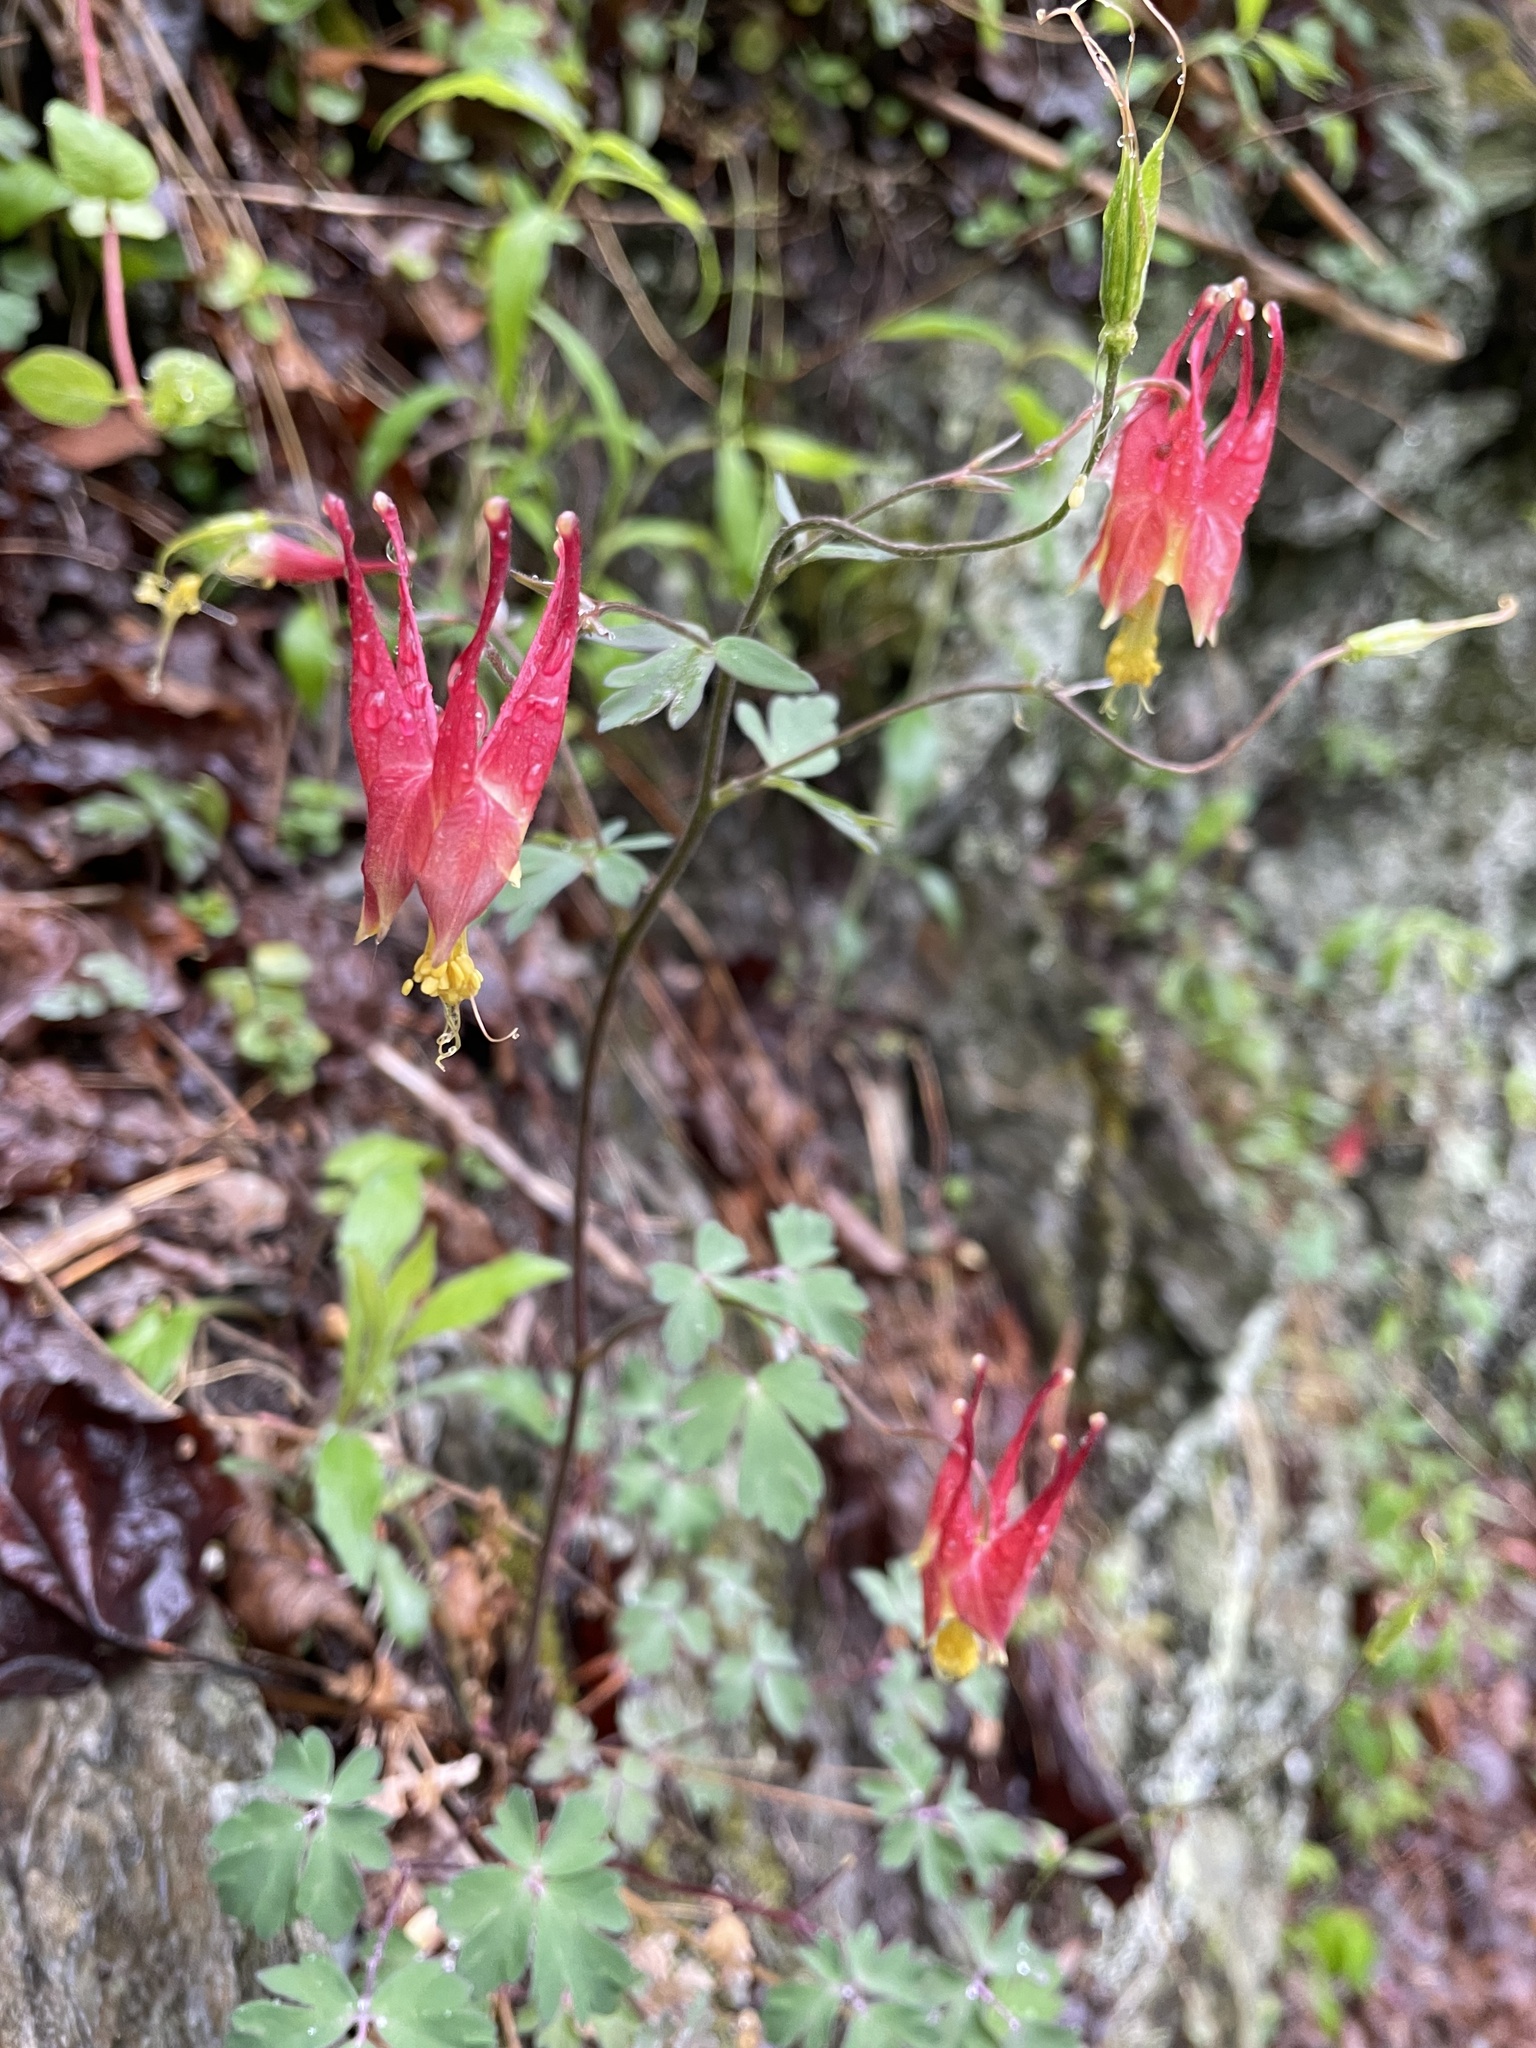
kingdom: Plantae
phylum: Tracheophyta
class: Magnoliopsida
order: Ranunculales
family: Ranunculaceae
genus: Aquilegia
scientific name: Aquilegia canadensis
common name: American columbine
